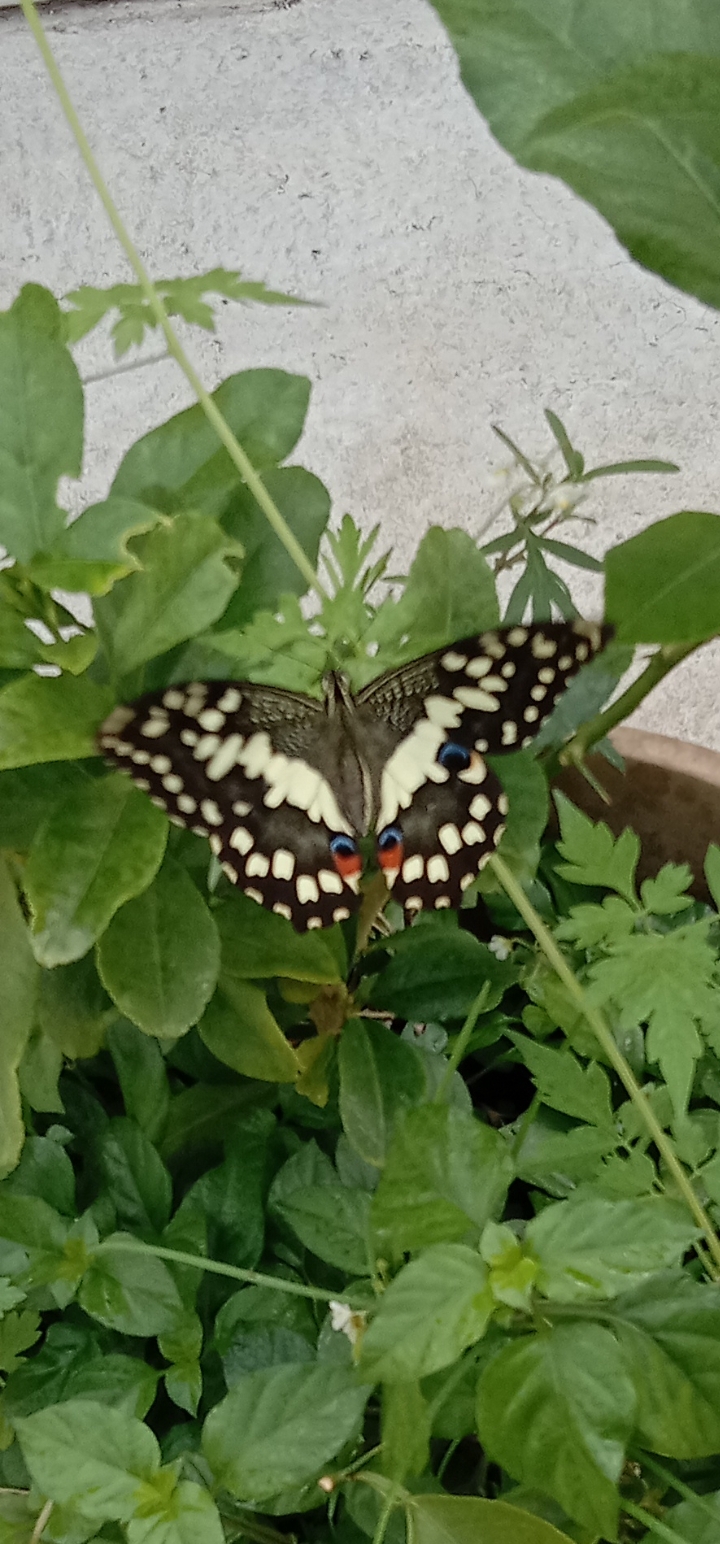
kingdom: Animalia
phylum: Arthropoda
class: Insecta
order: Lepidoptera
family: Papilionidae
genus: Papilio
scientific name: Papilio demoleus
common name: Lime butterfly
